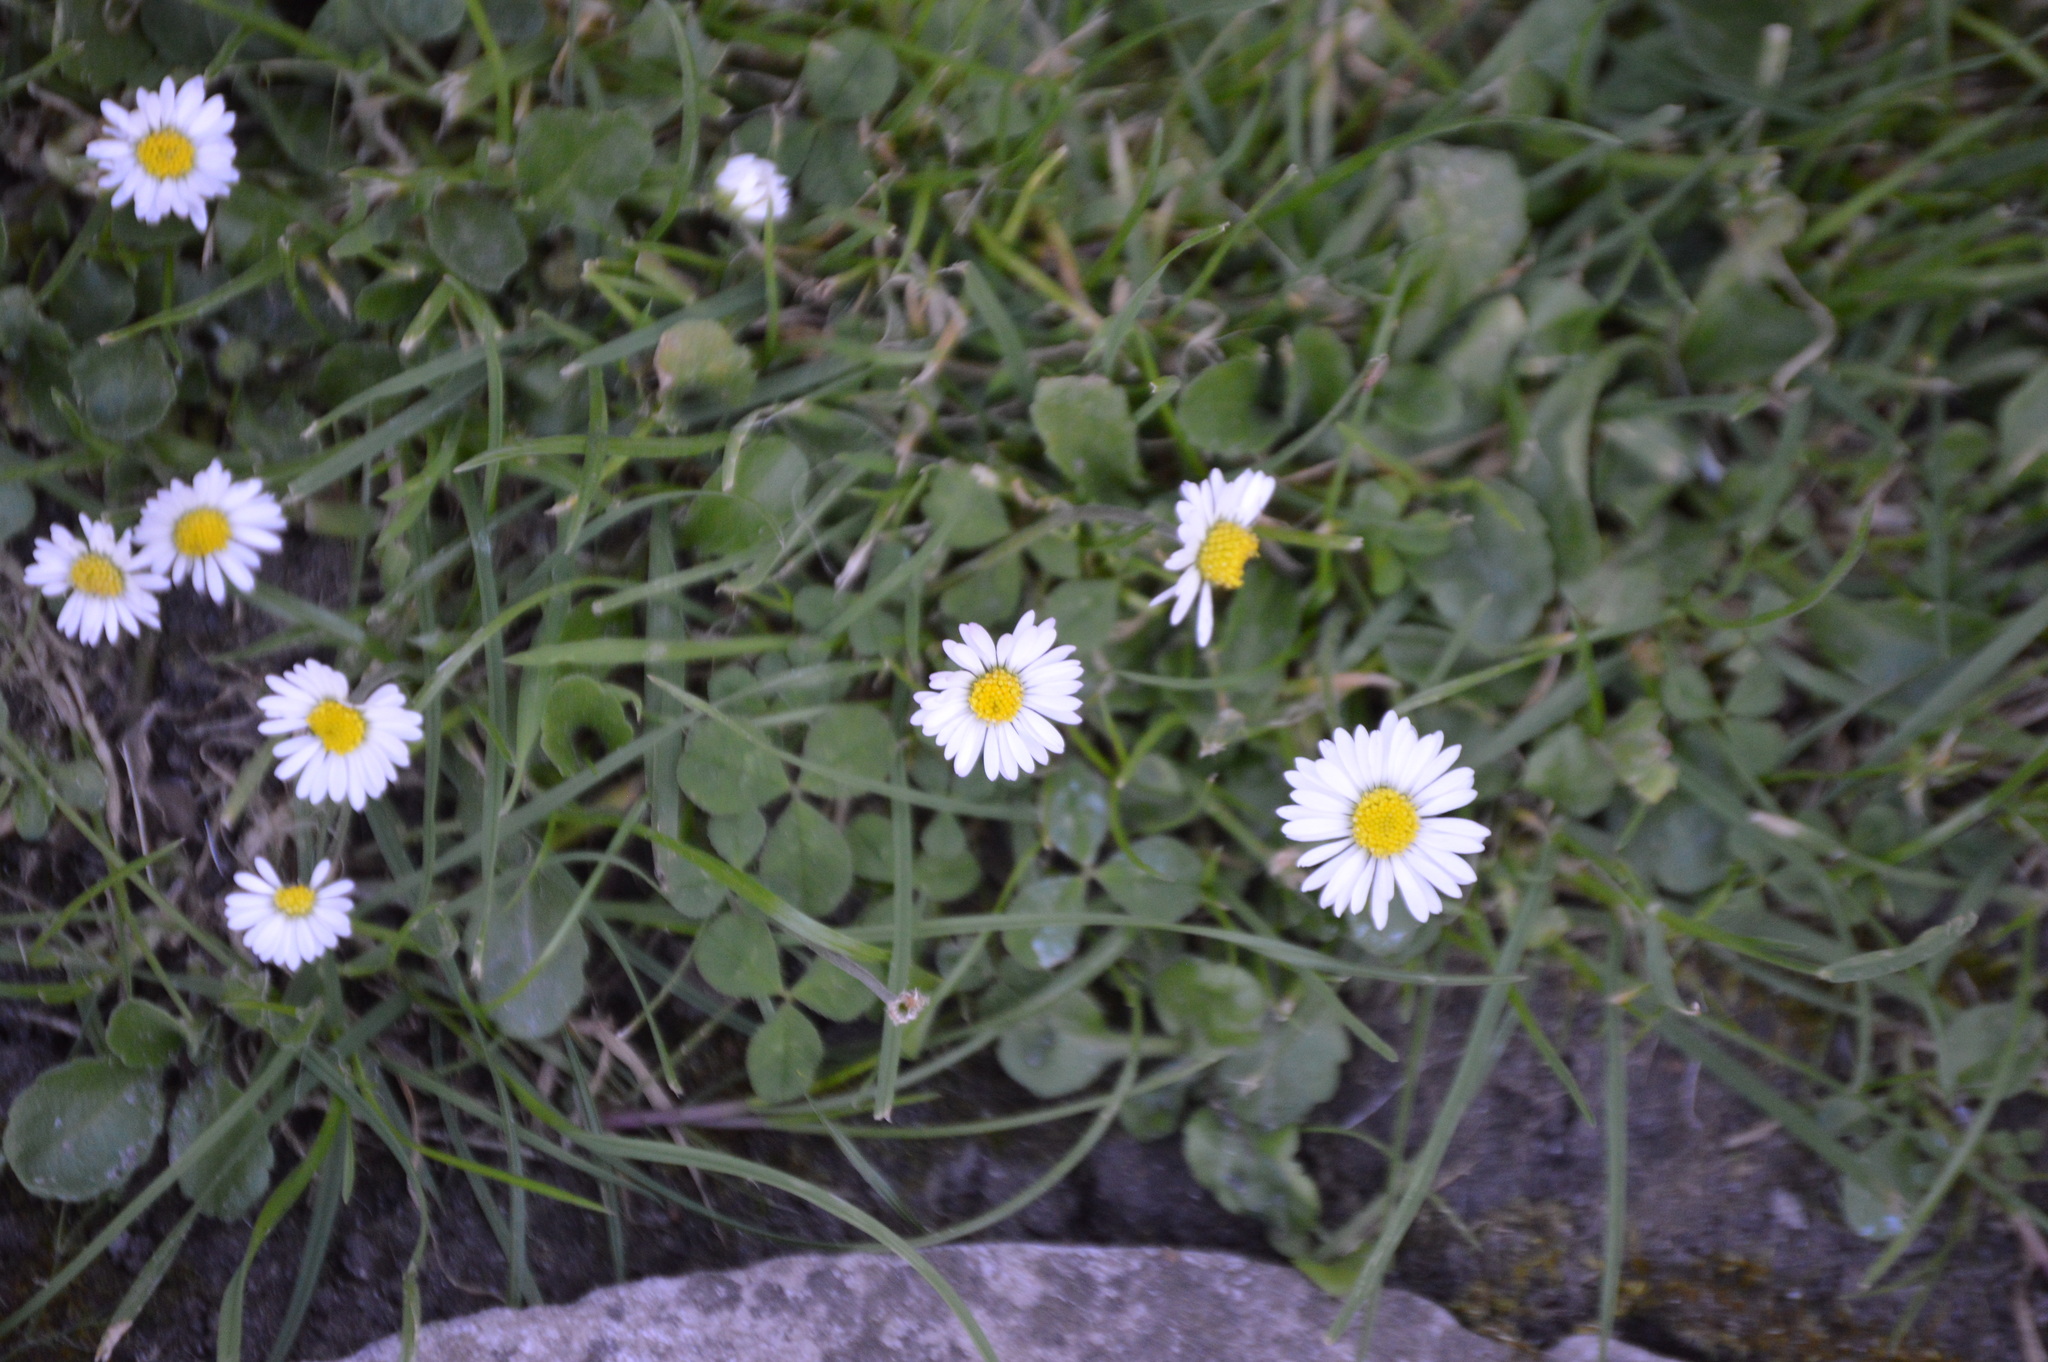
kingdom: Plantae
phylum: Tracheophyta
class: Magnoliopsida
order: Asterales
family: Asteraceae
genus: Bellis
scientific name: Bellis perennis
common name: Lawndaisy
